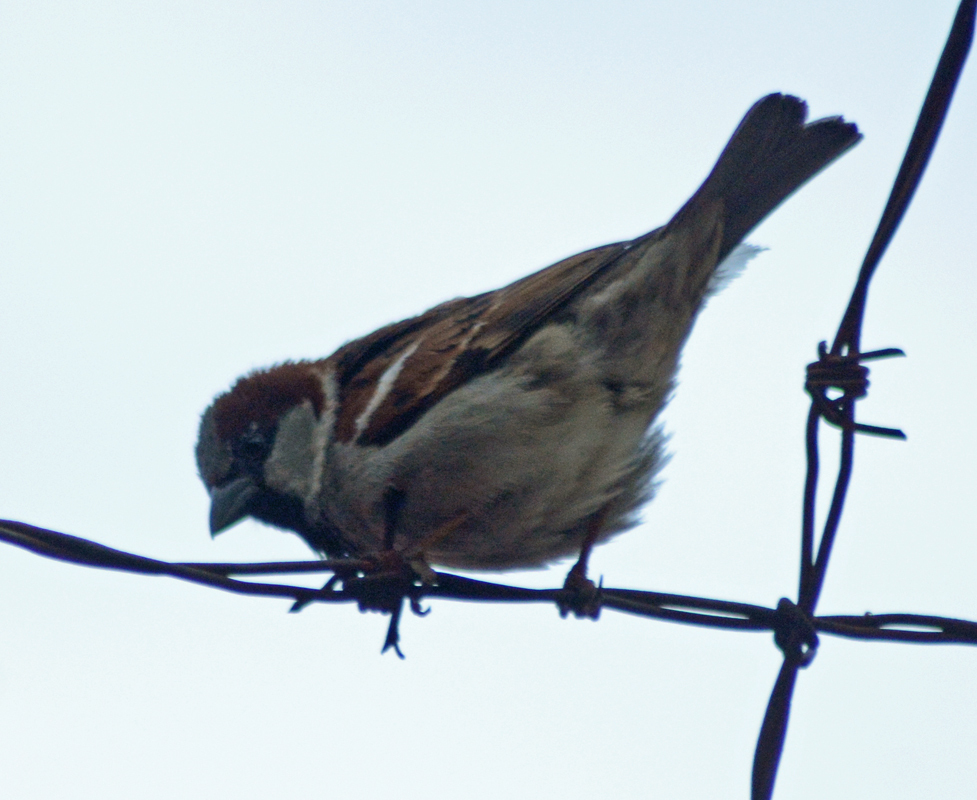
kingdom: Animalia
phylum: Chordata
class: Aves
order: Passeriformes
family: Passeridae
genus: Passer
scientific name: Passer domesticus
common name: House sparrow
